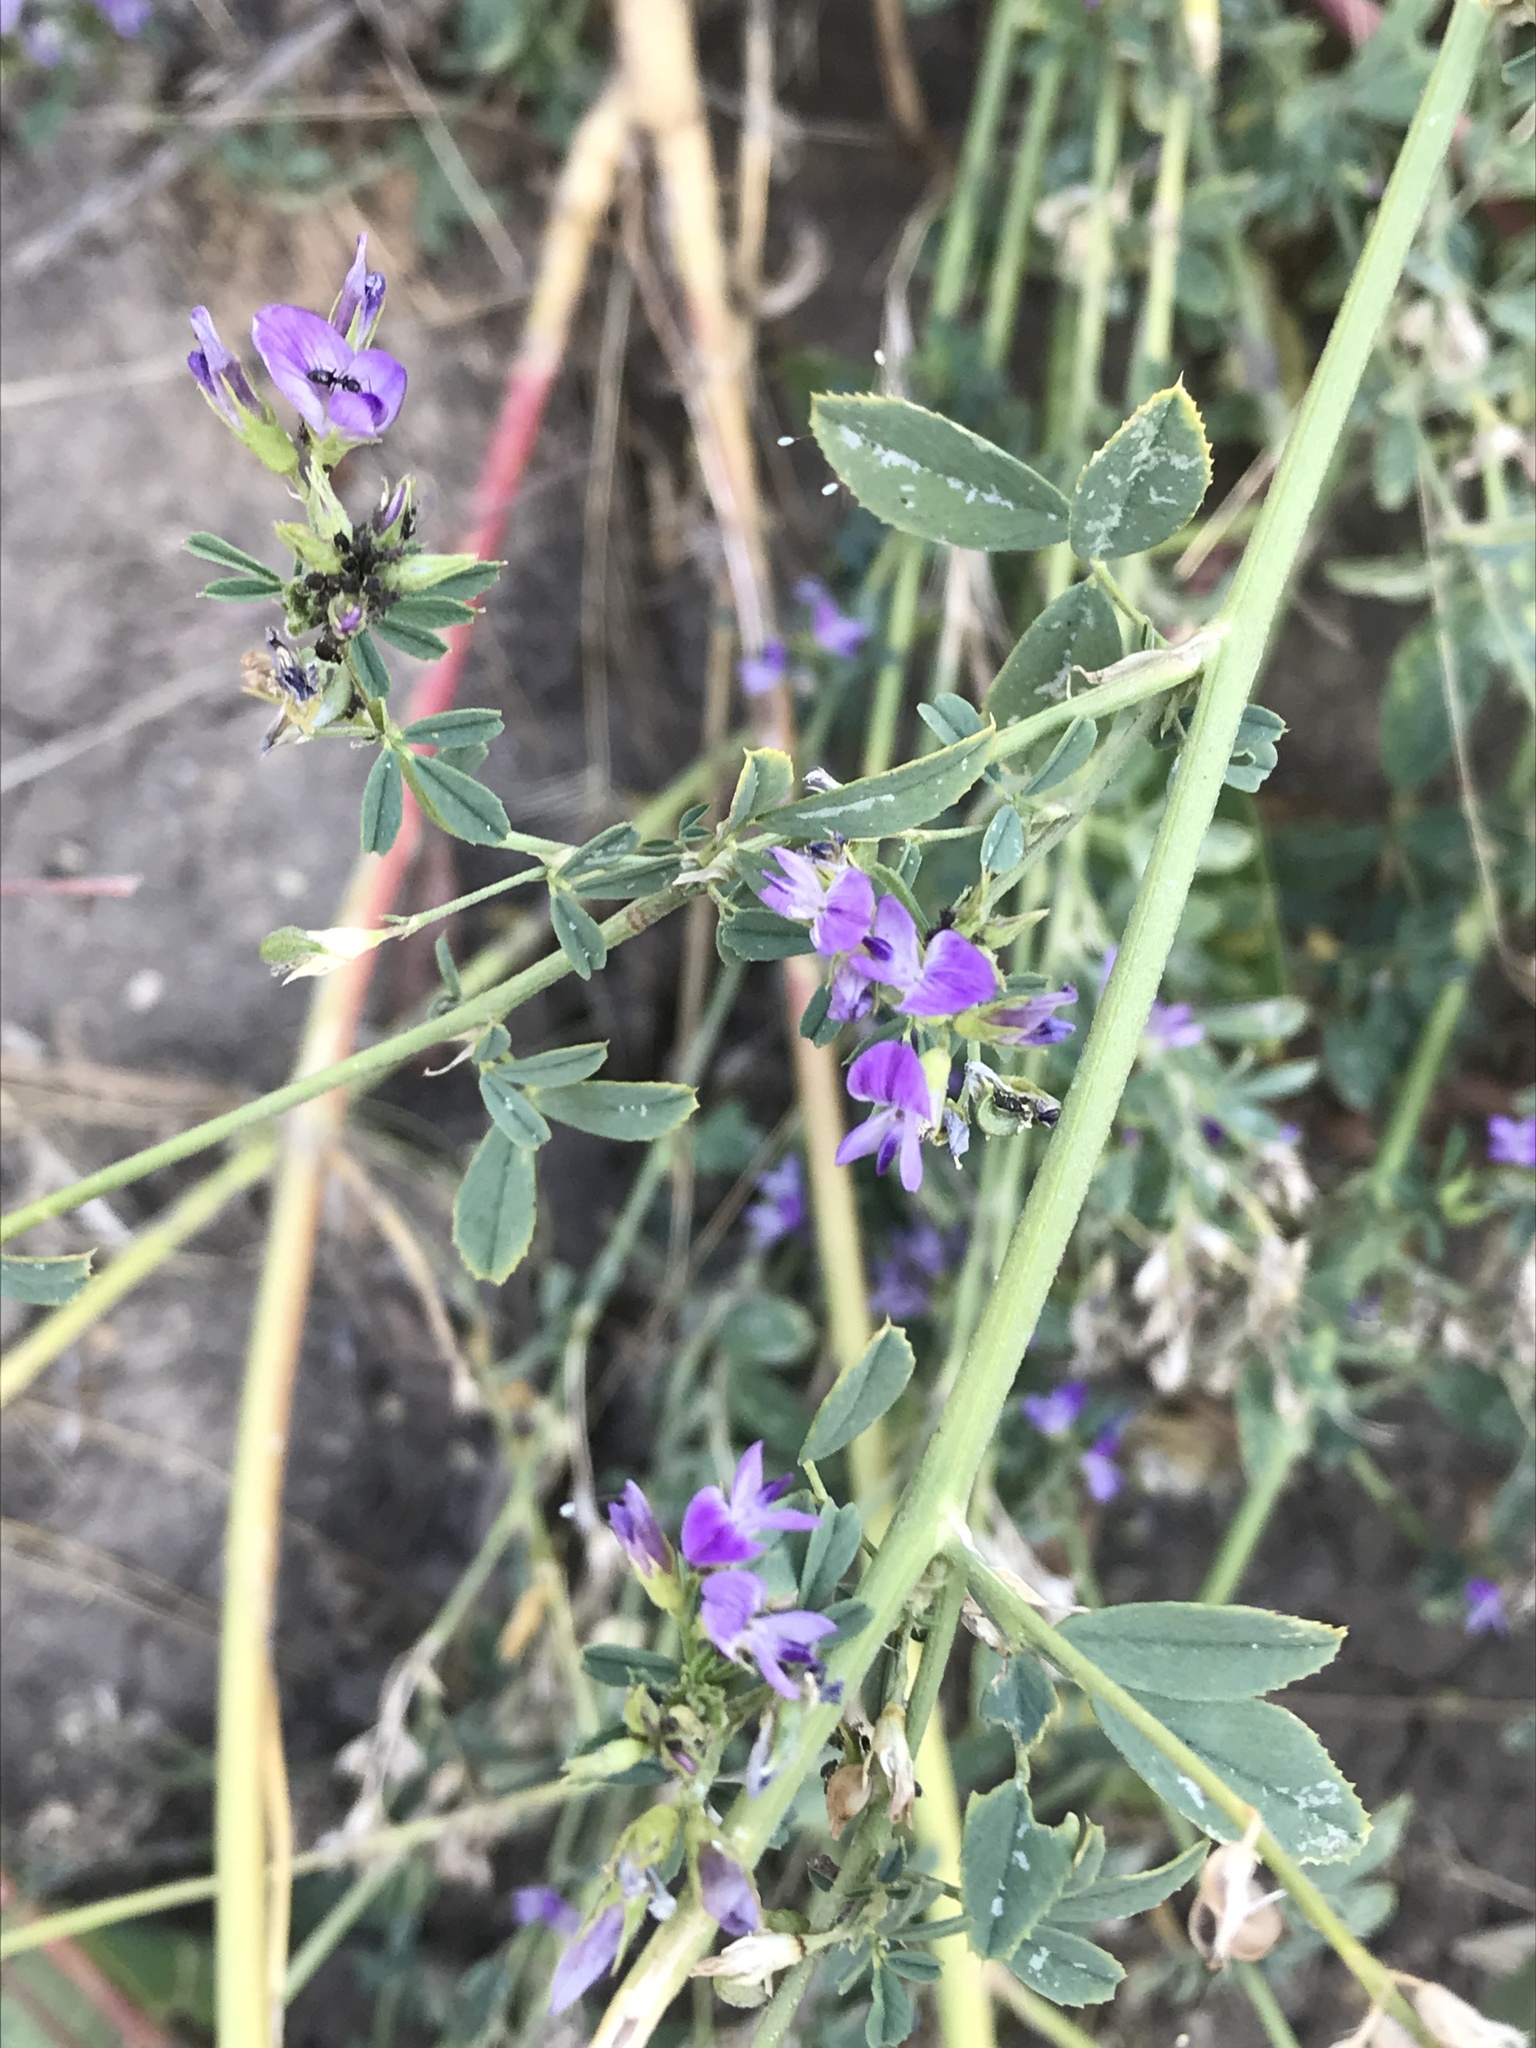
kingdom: Plantae
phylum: Tracheophyta
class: Magnoliopsida
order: Fabales
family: Fabaceae
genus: Medicago
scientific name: Medicago sativa
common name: Alfalfa
